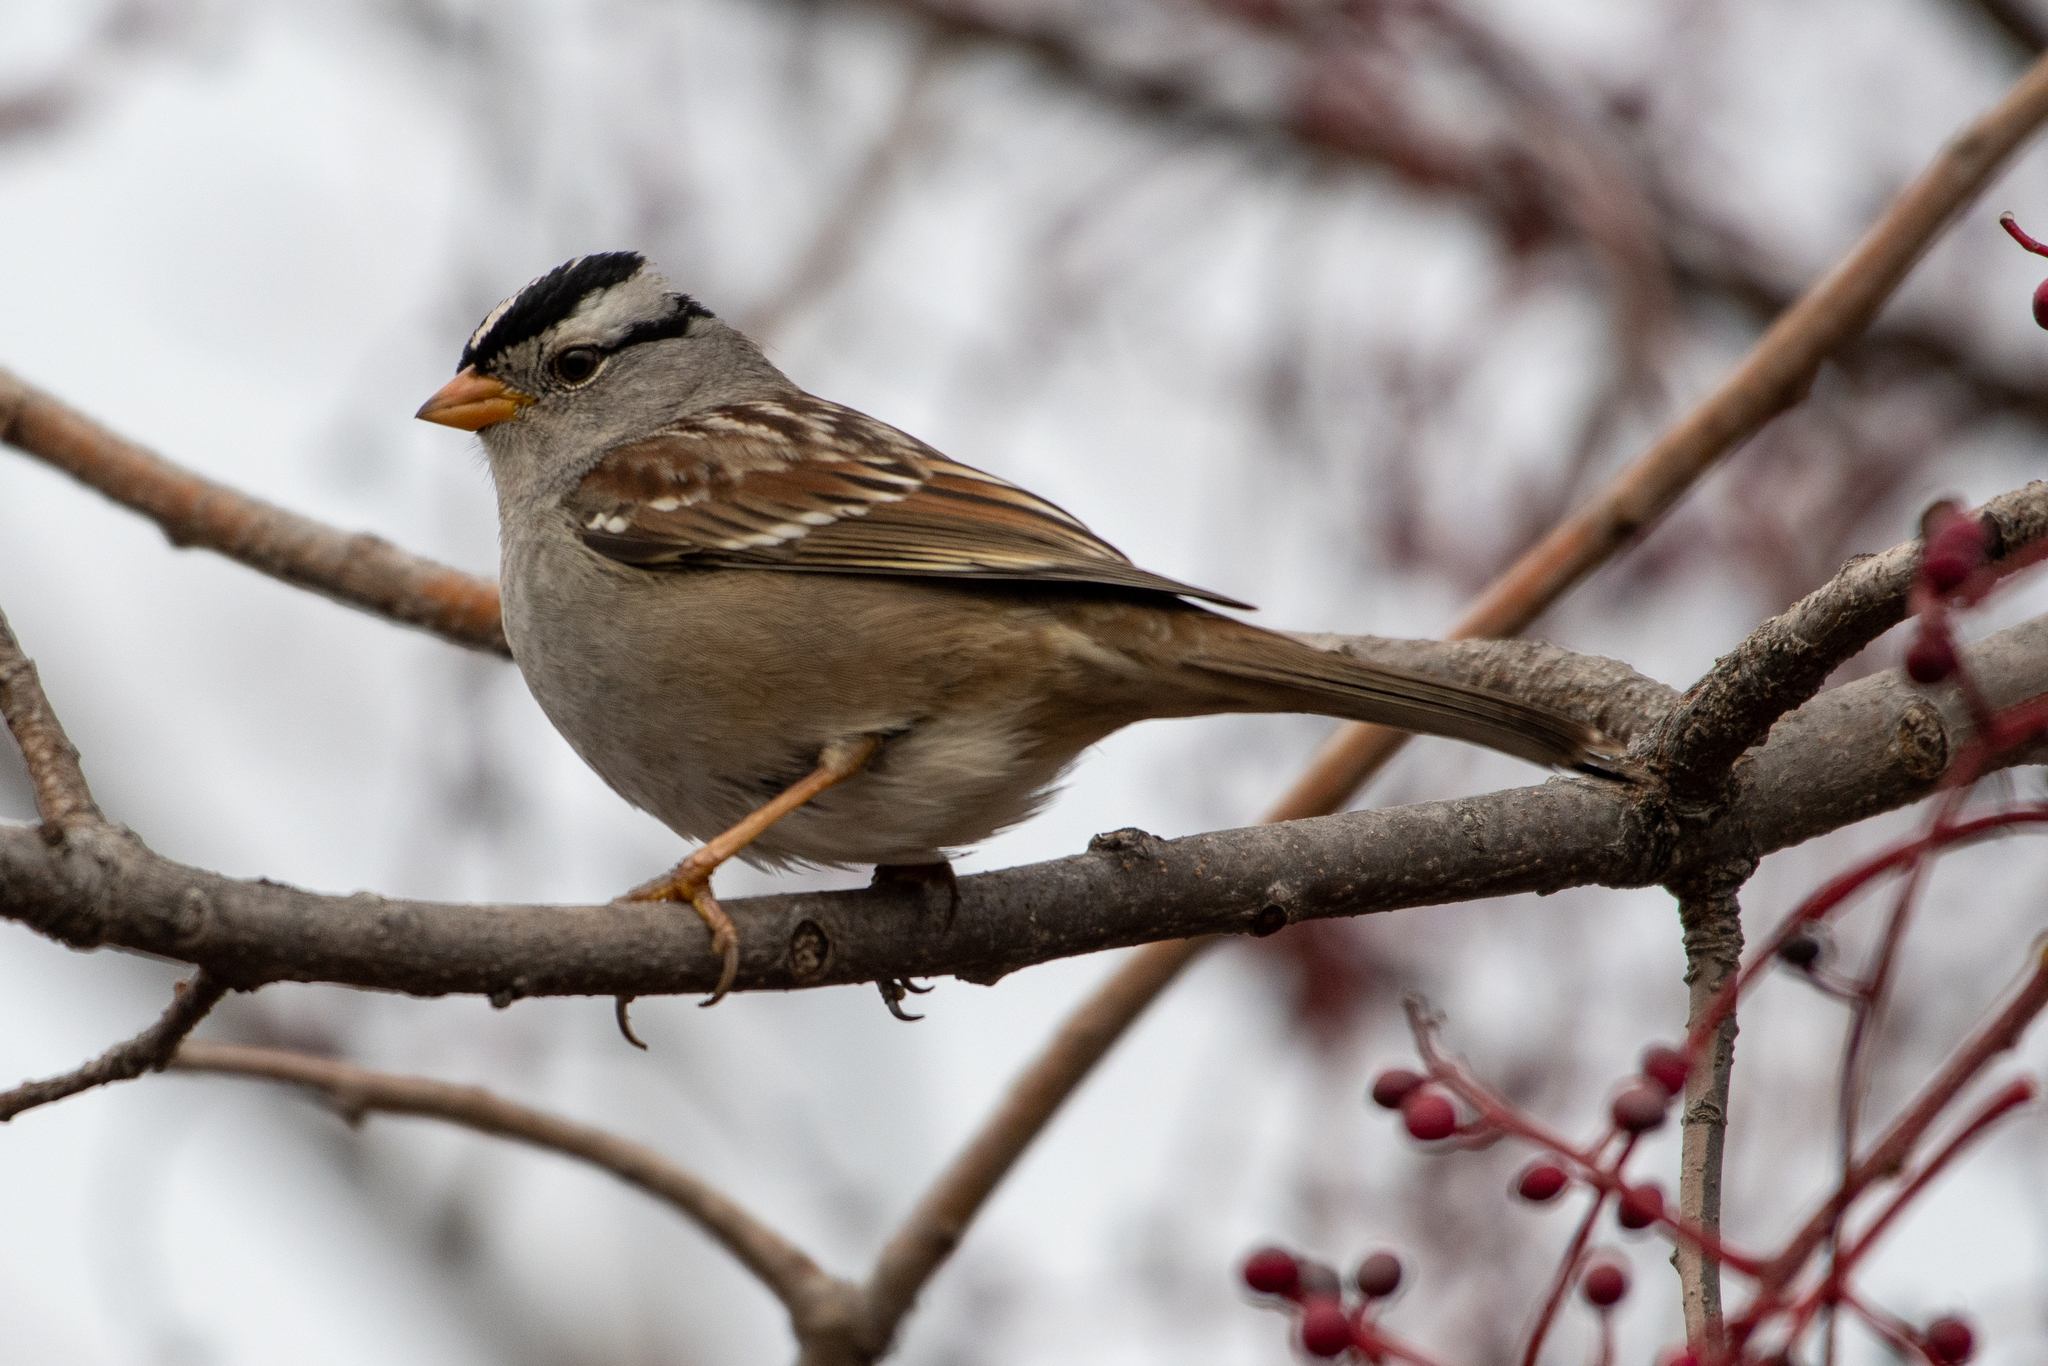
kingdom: Animalia
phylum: Chordata
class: Aves
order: Passeriformes
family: Passerellidae
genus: Zonotrichia
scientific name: Zonotrichia leucophrys
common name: White-crowned sparrow
